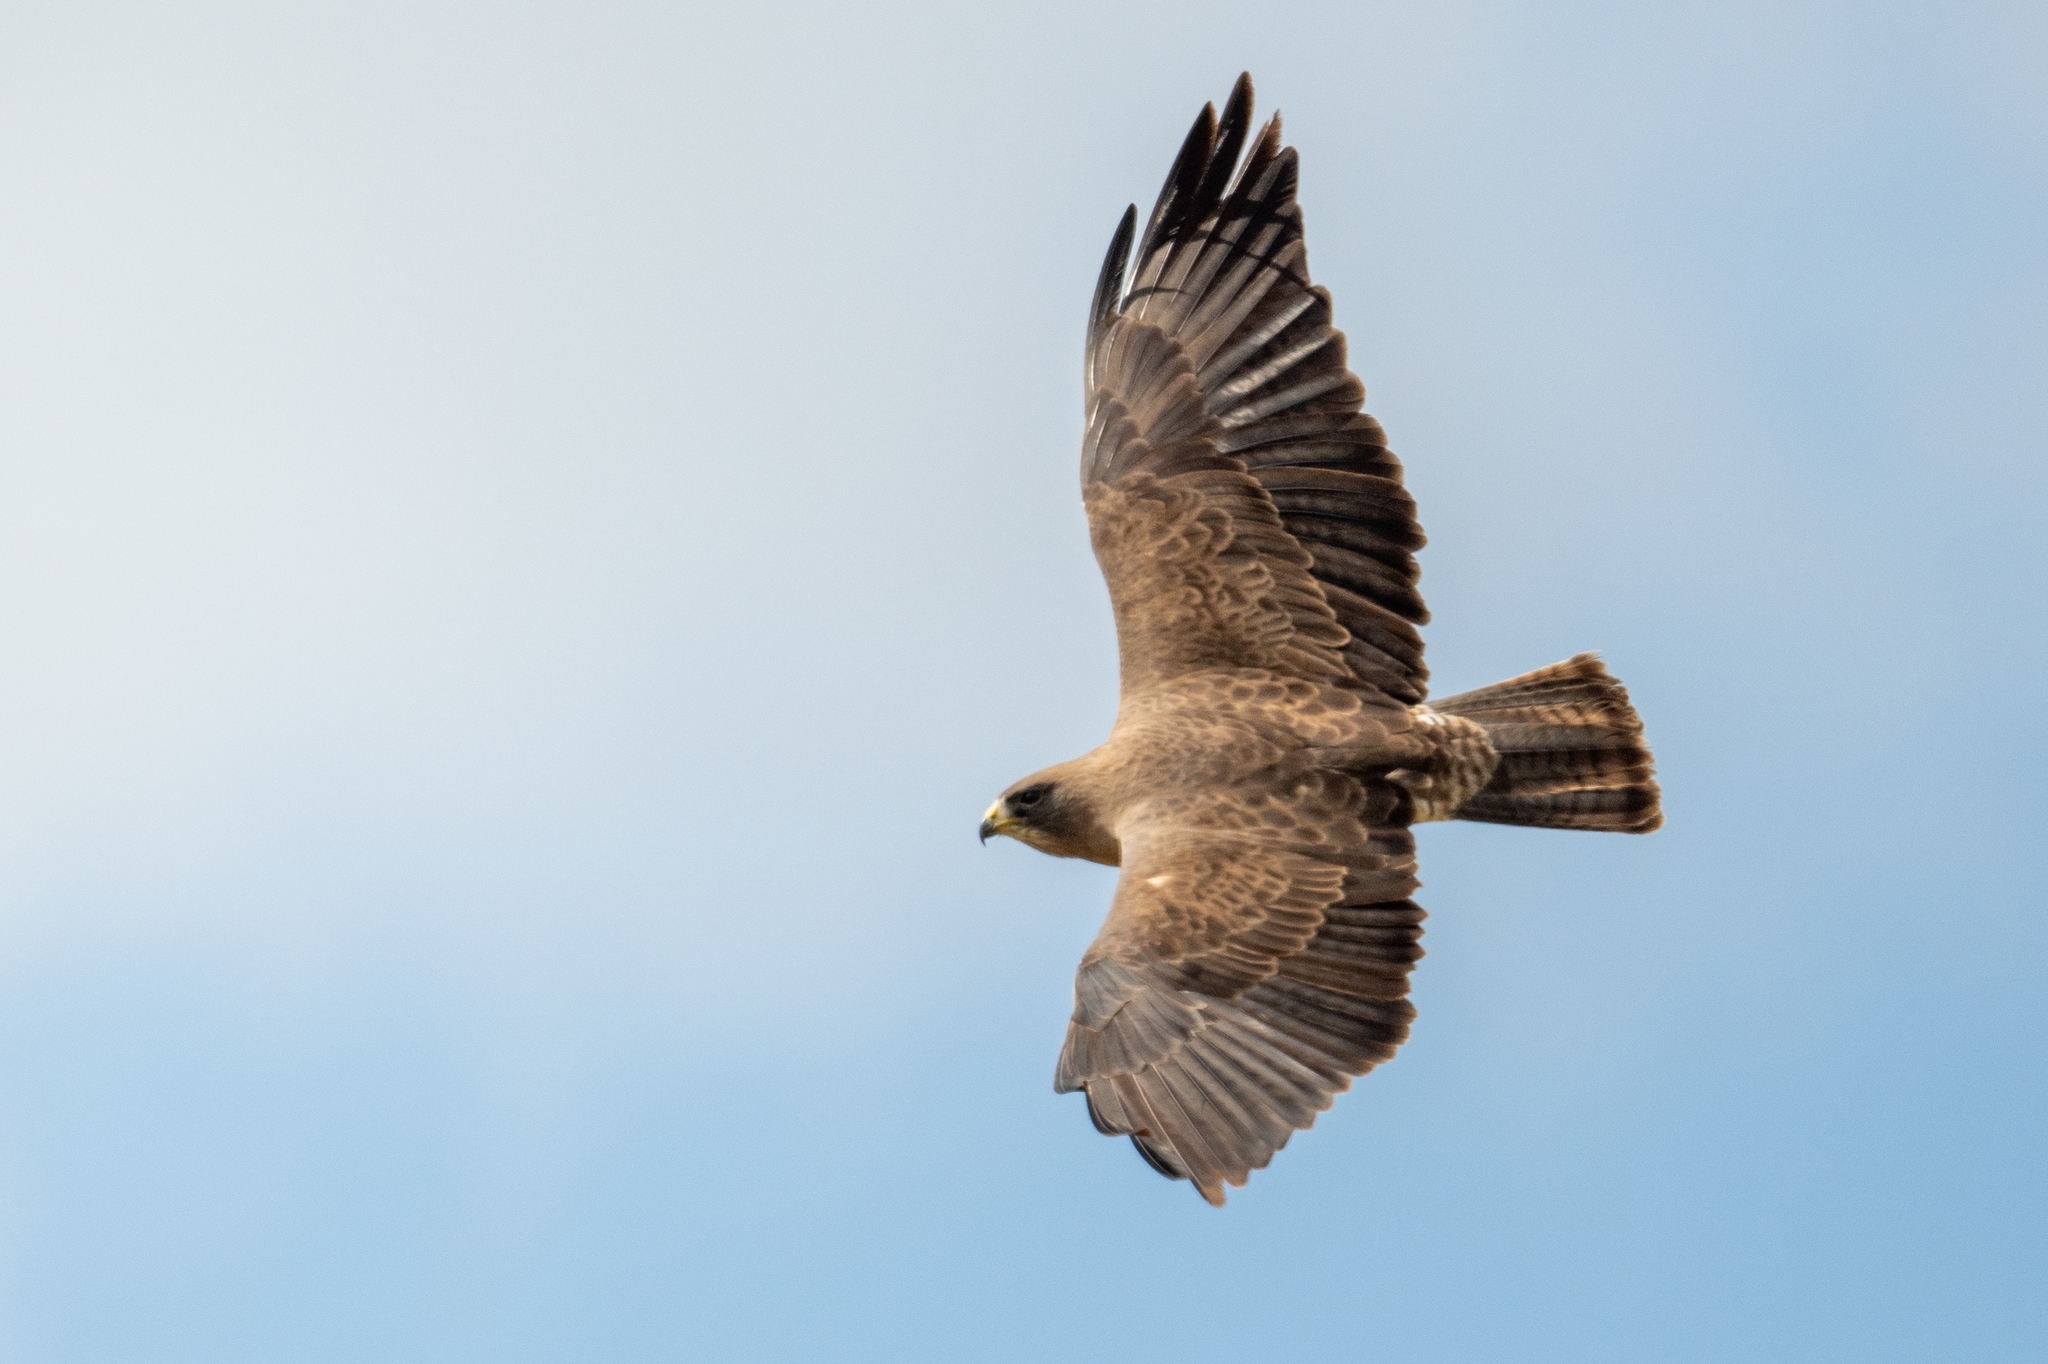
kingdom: Animalia
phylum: Chordata
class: Aves
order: Accipitriformes
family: Accipitridae
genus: Buteo
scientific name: Buteo swainsoni
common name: Swainson's hawk
